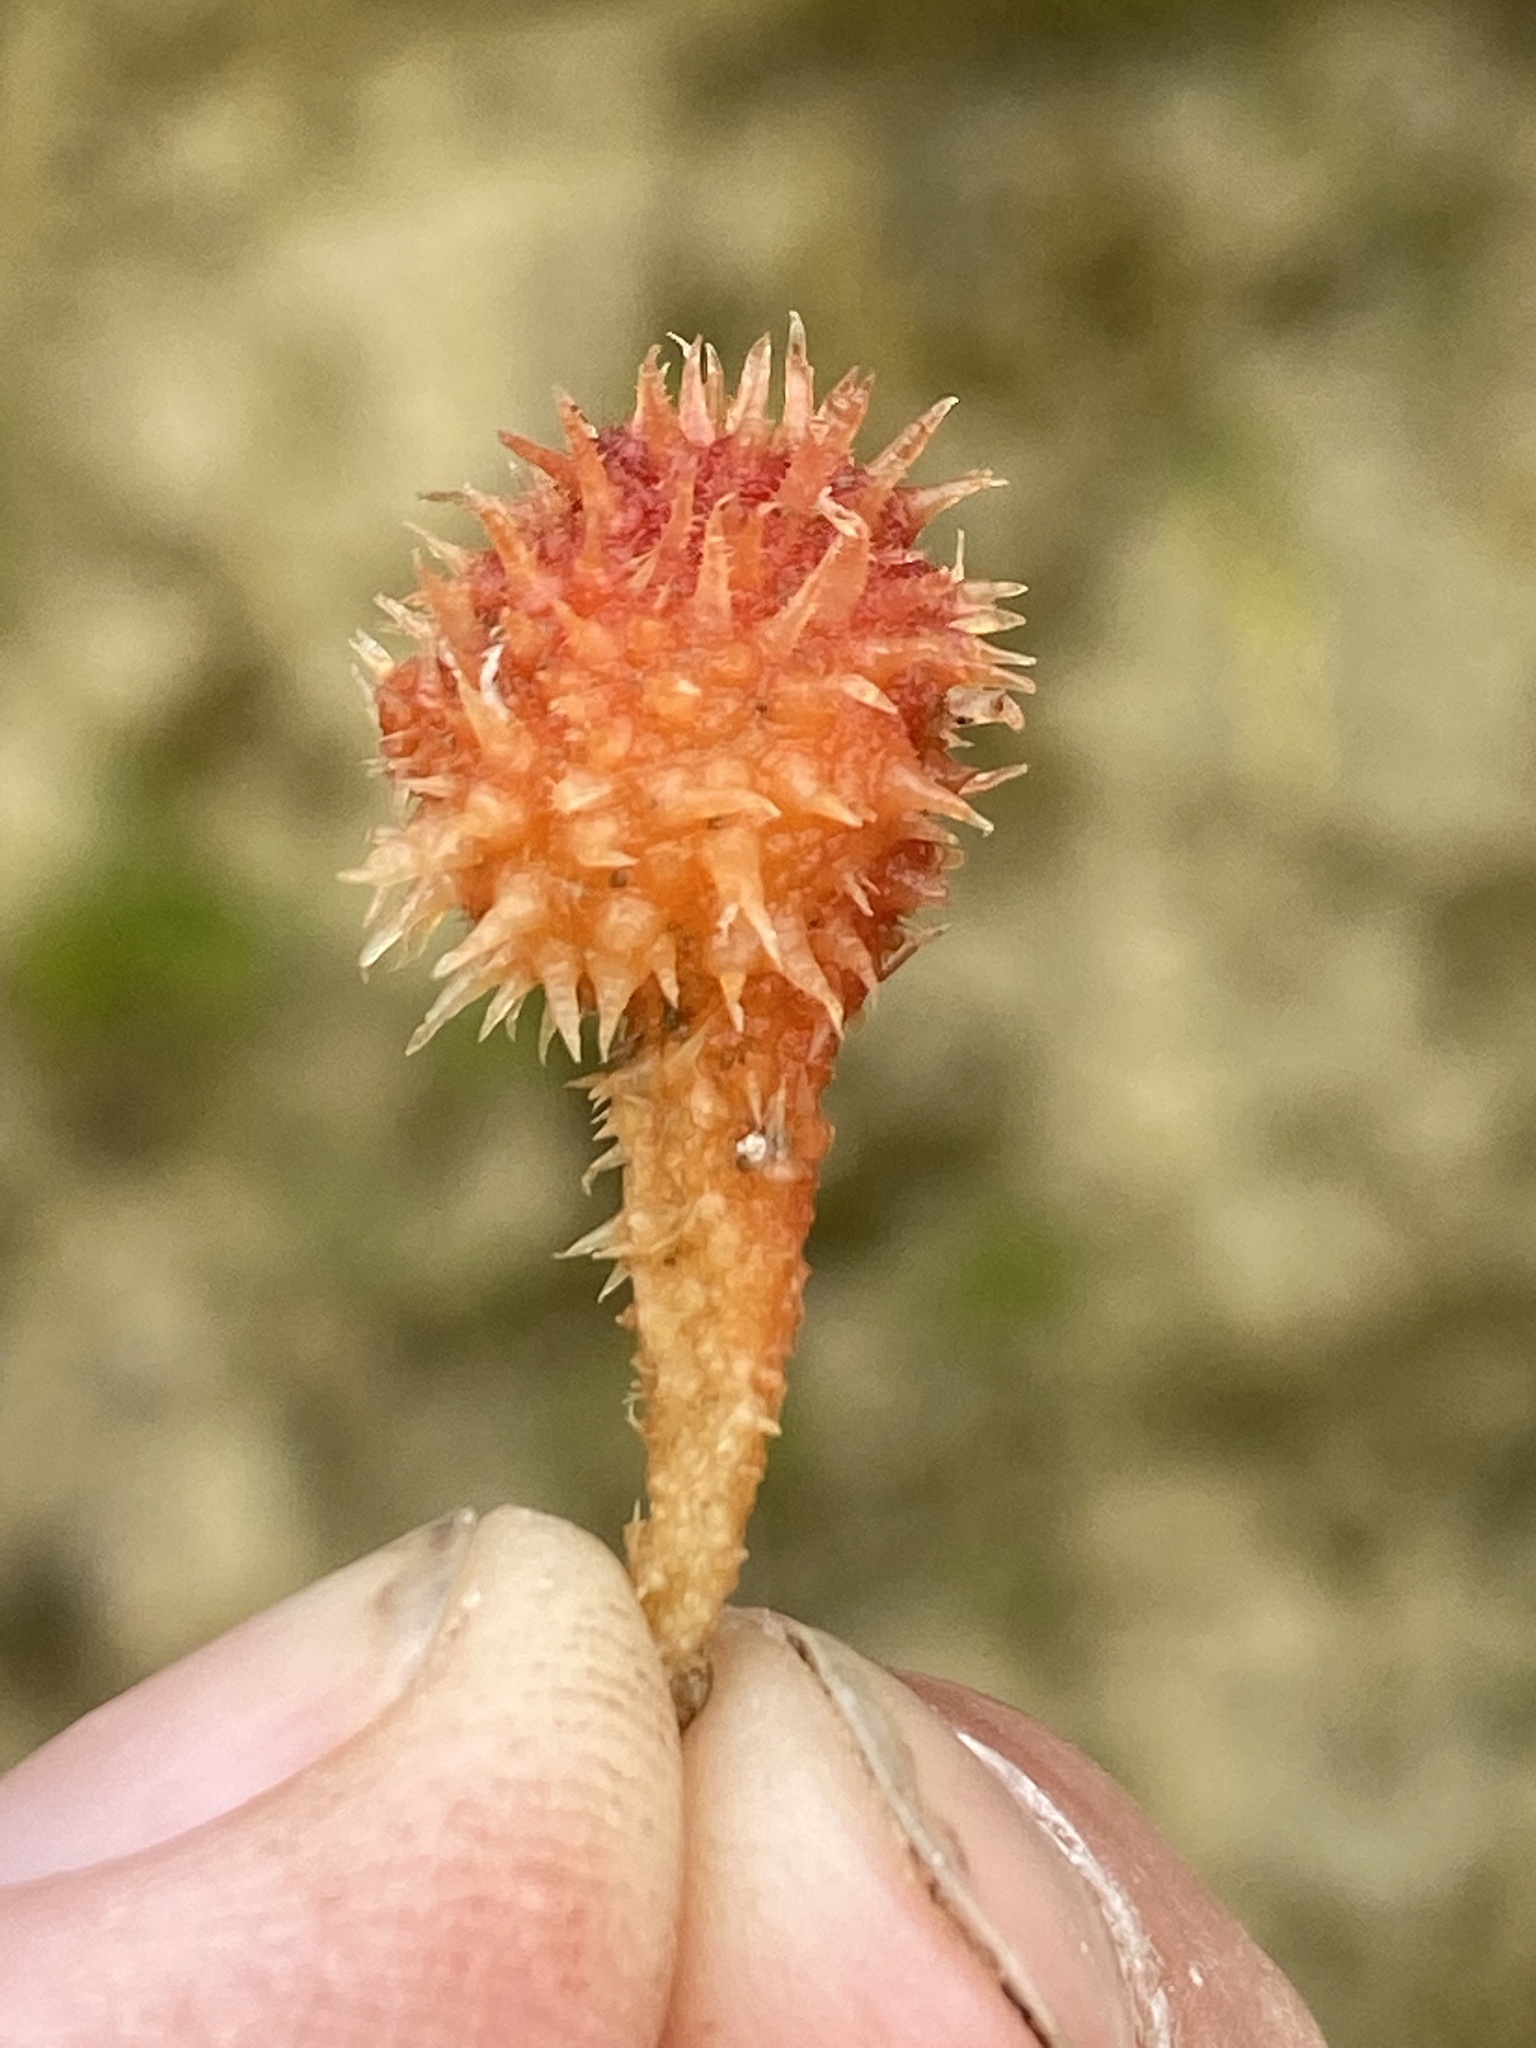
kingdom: Animalia
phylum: Chordata
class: Ascidiacea
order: Stolidobranchia
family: Pyuridae
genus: Boltenia
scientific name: Boltenia villosa
